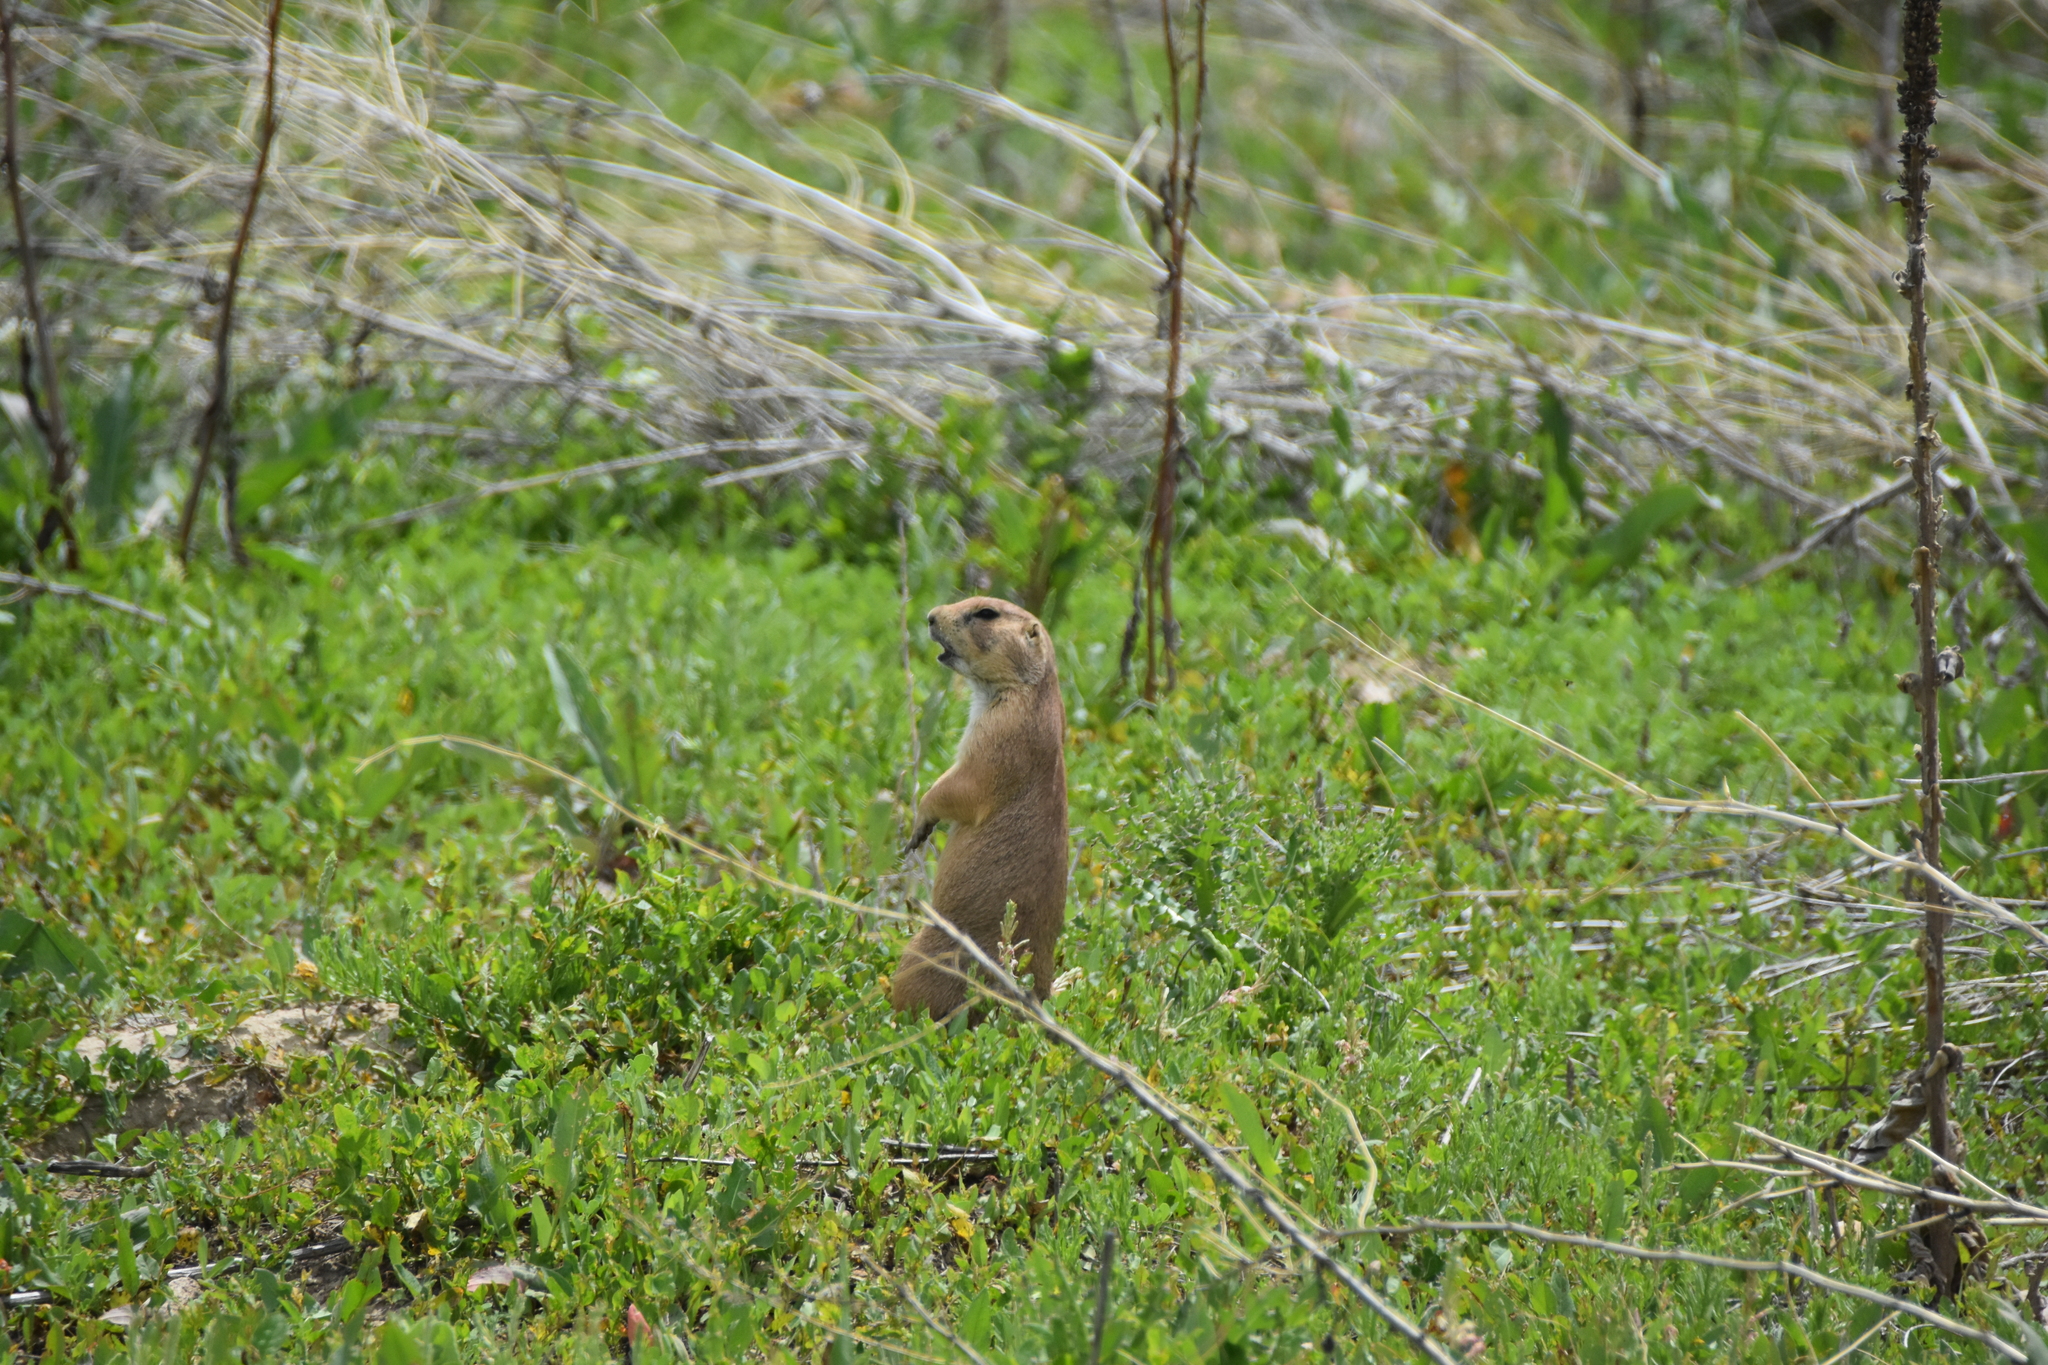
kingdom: Animalia
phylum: Chordata
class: Mammalia
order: Rodentia
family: Sciuridae
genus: Cynomys
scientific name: Cynomys ludovicianus
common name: Black-tailed prairie dog
